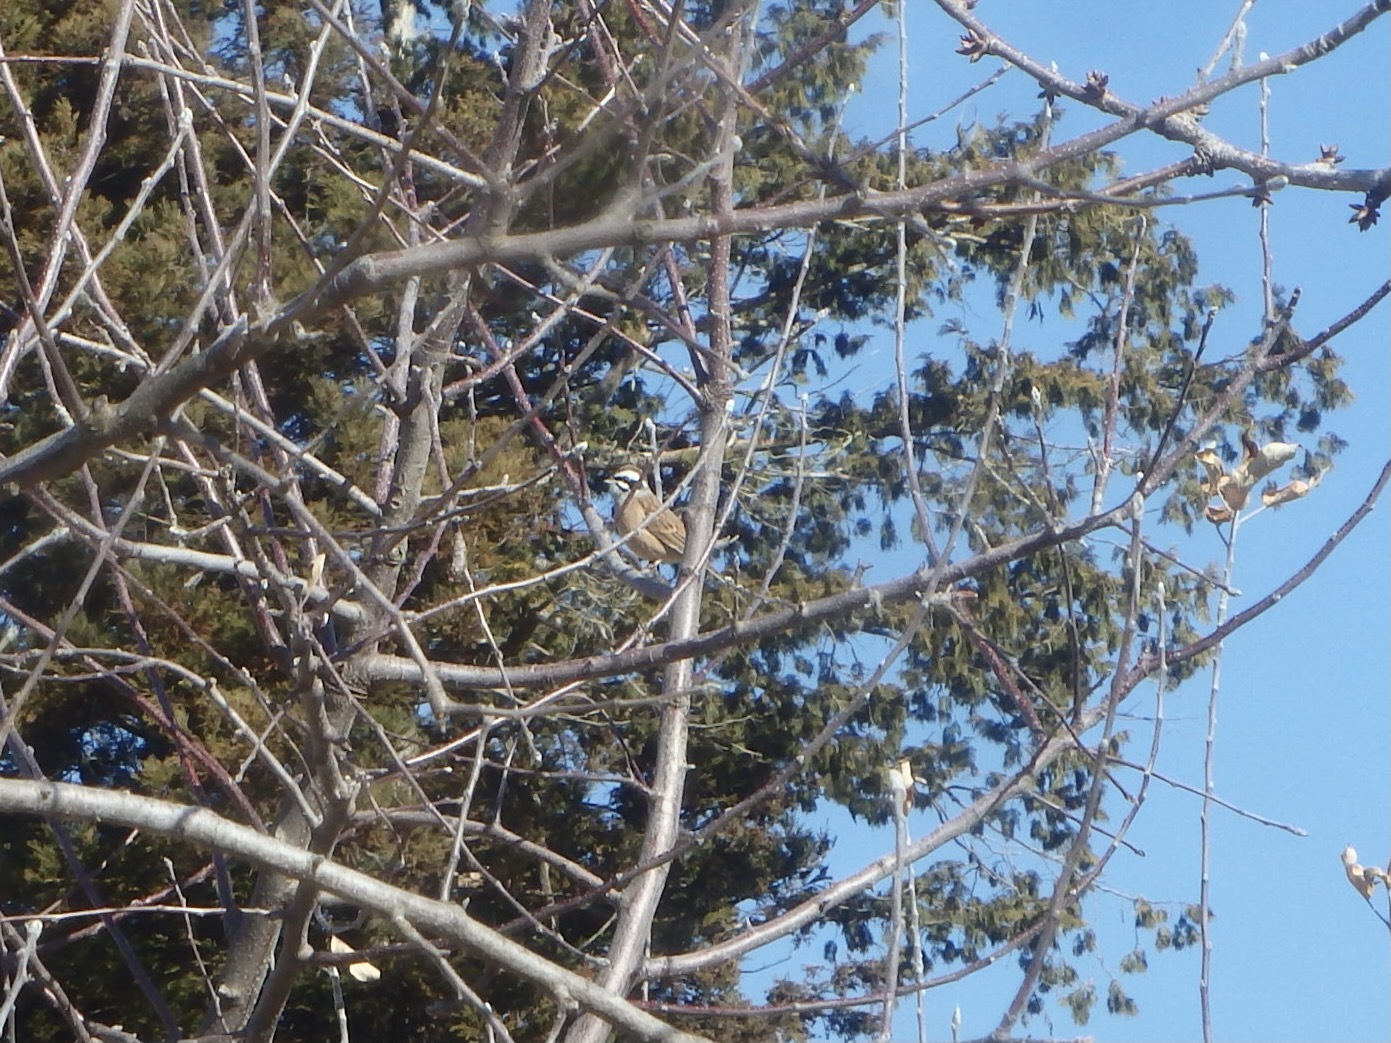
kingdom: Animalia
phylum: Chordata
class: Aves
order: Passeriformes
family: Emberizidae
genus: Emberiza
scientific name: Emberiza cioides
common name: Meadow bunting
